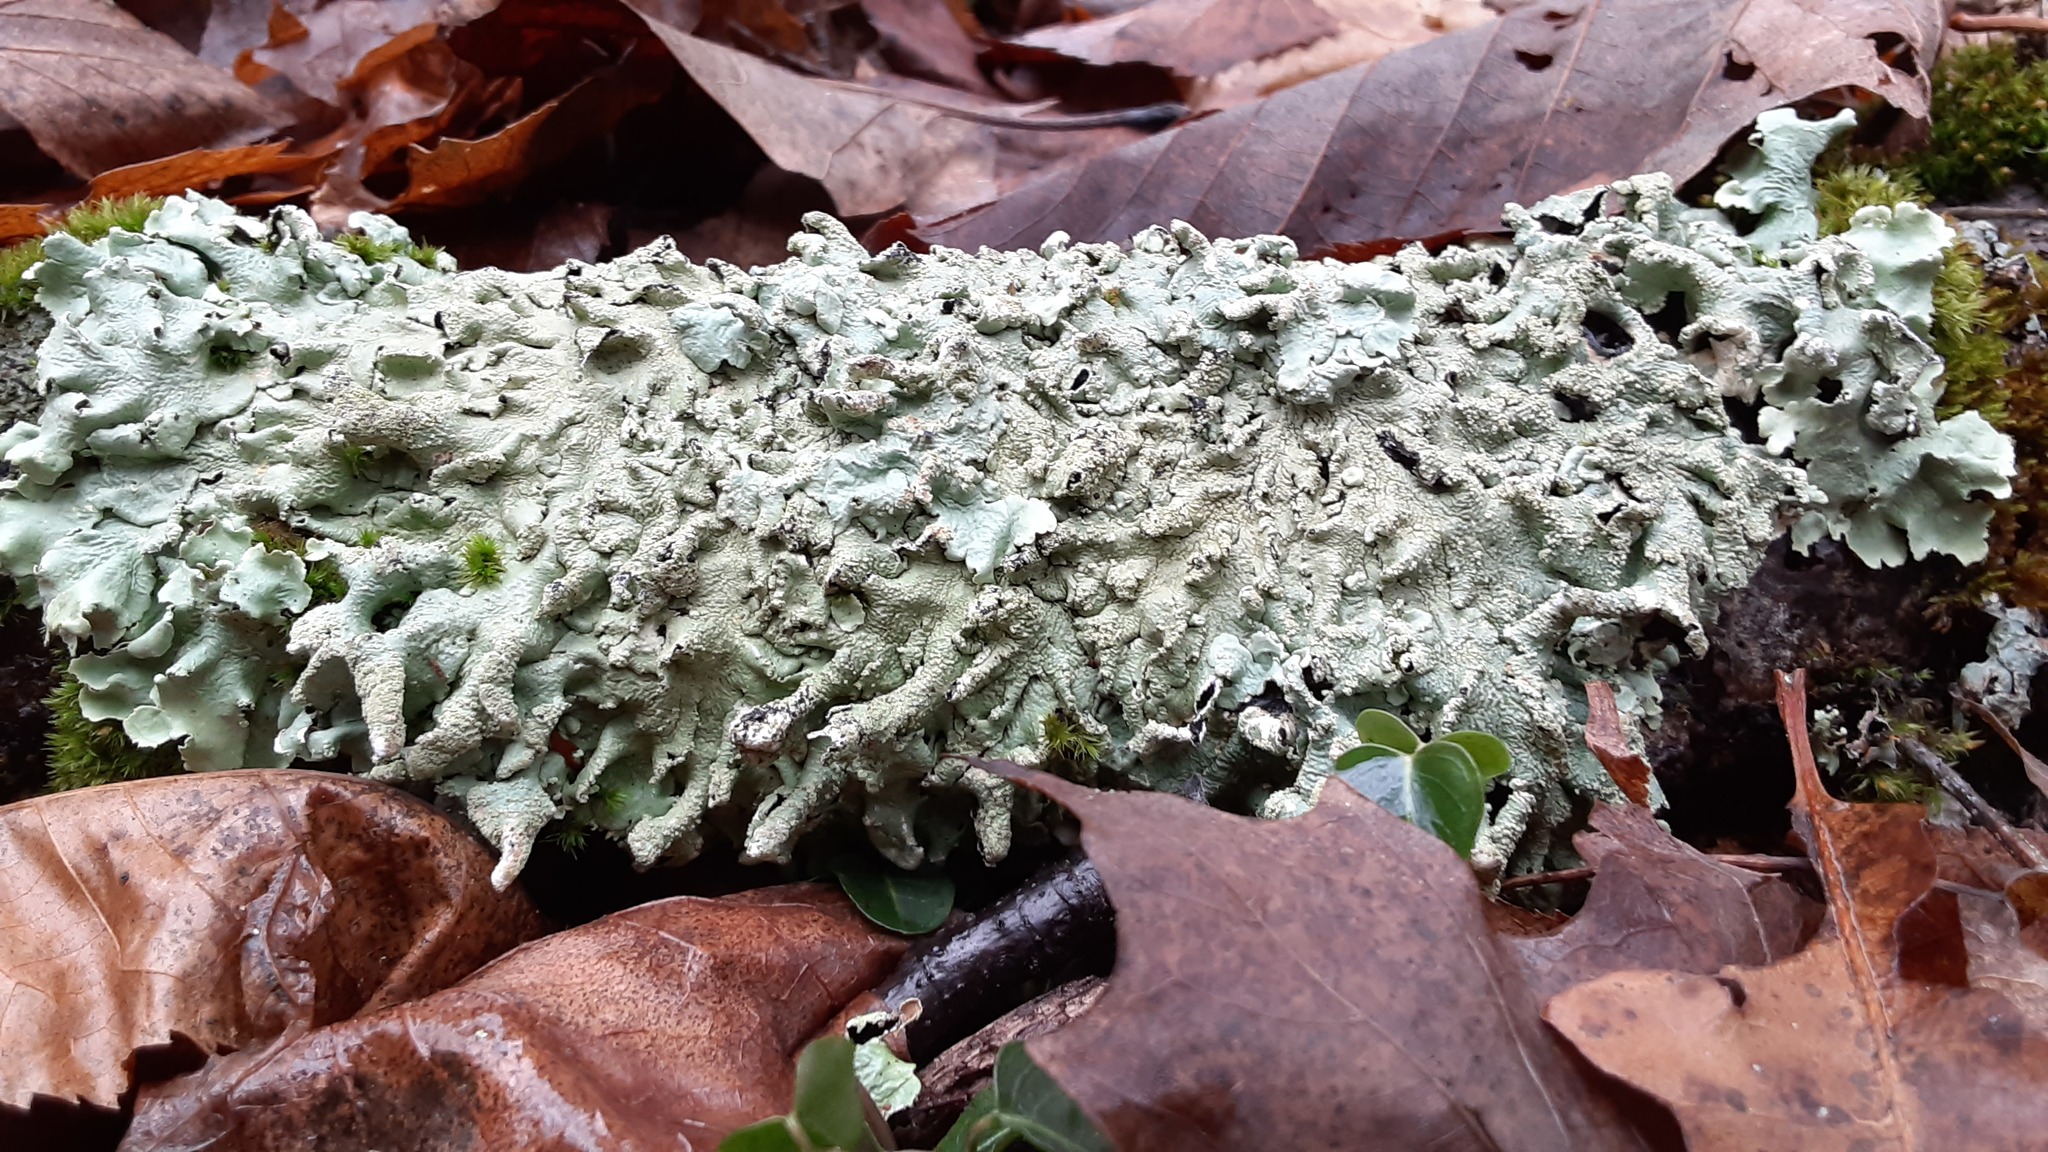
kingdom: Fungi
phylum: Ascomycota
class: Lecanoromycetes
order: Lecanorales
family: Parmeliaceae
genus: Flavoparmelia
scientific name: Flavoparmelia caperata
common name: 40-mile per hour lichen
